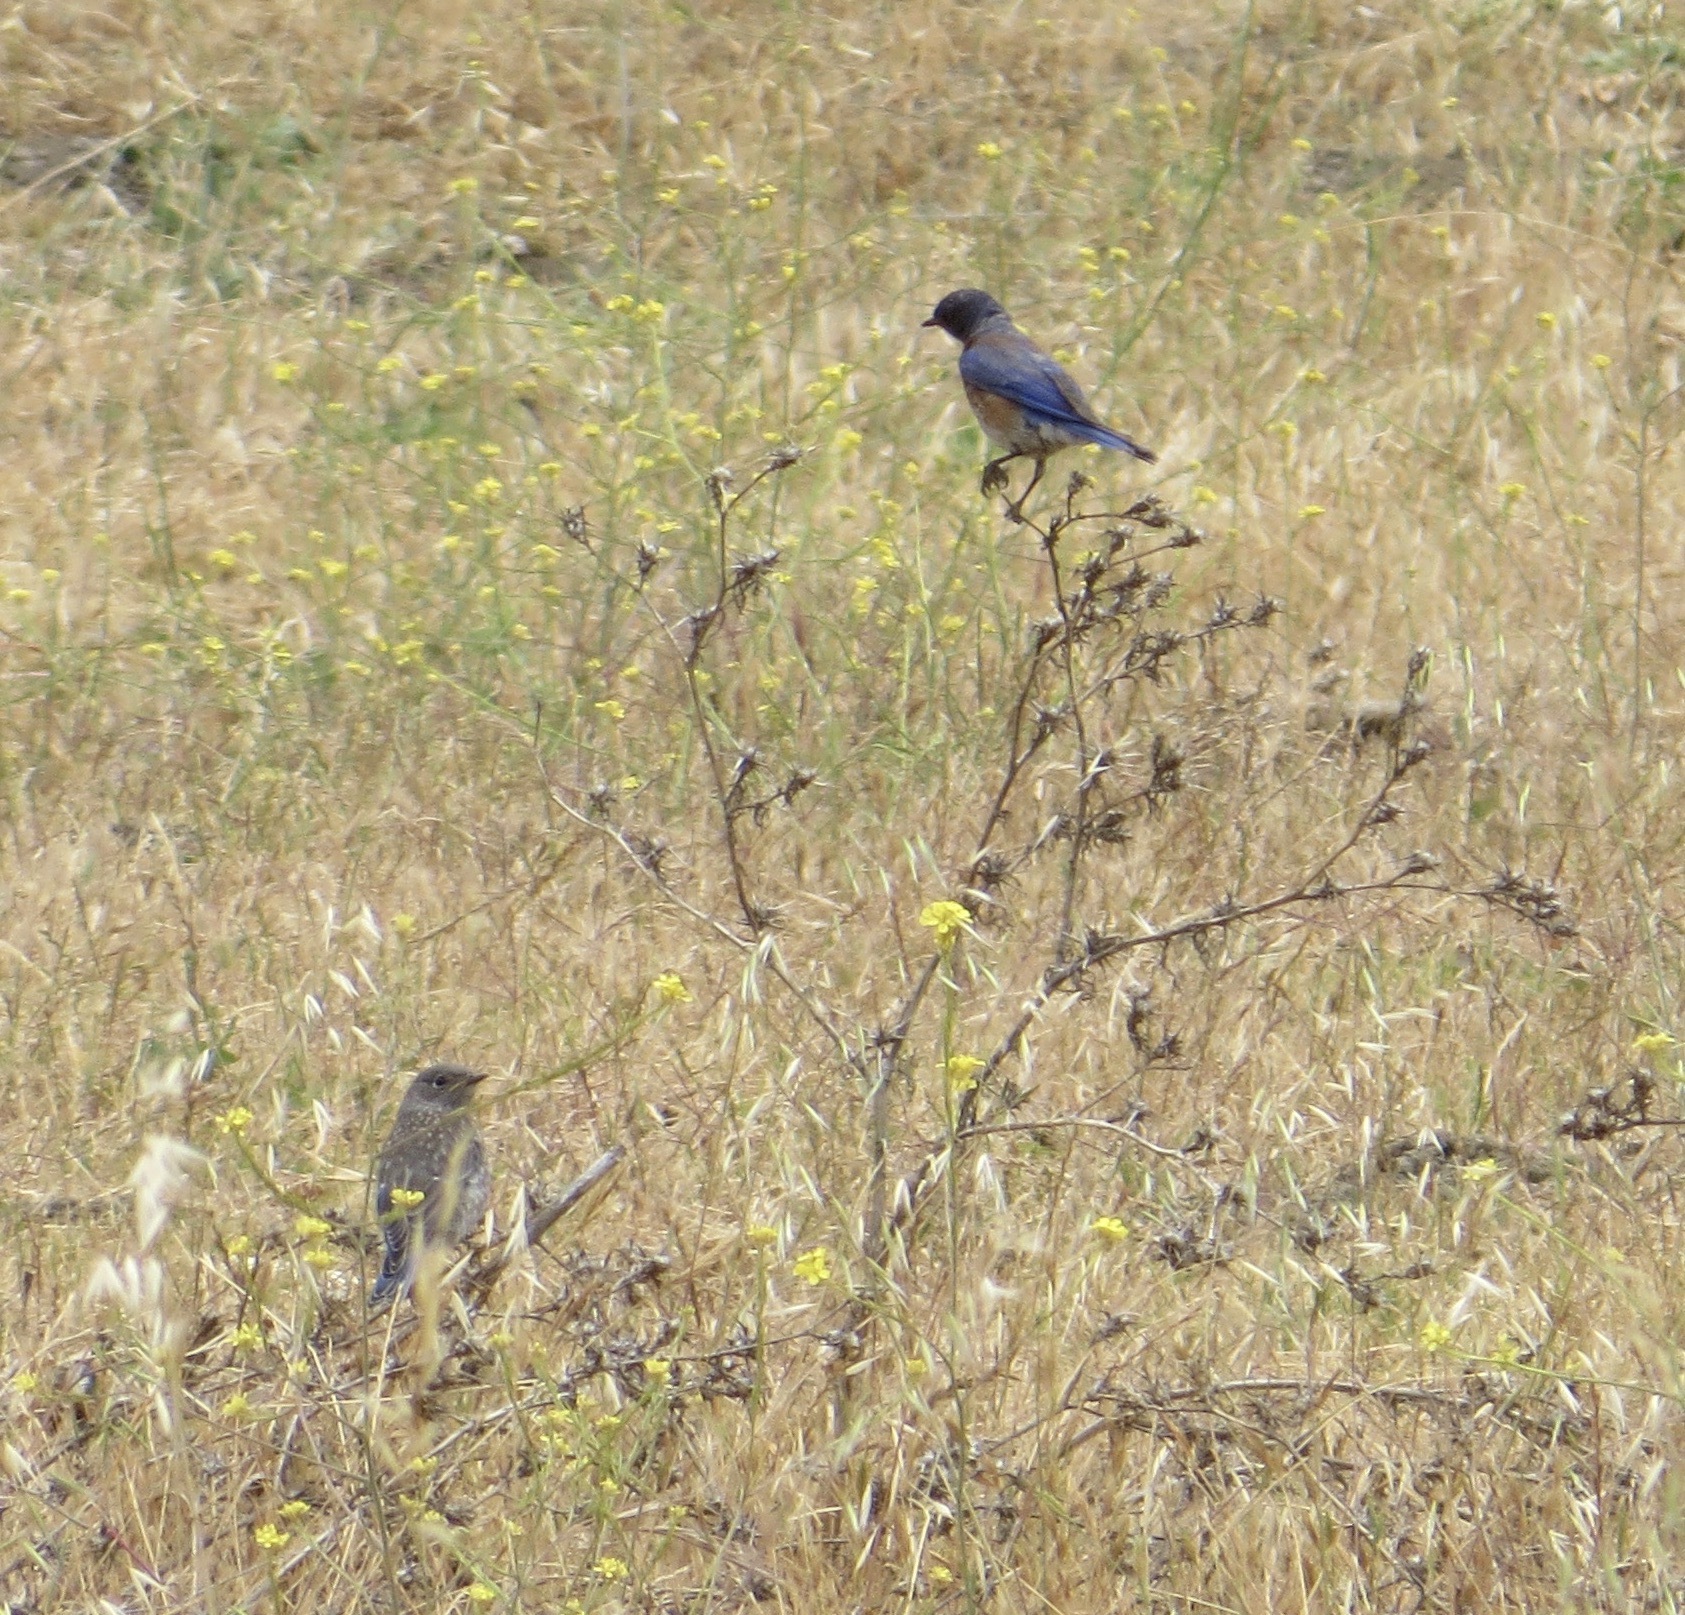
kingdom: Animalia
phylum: Chordata
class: Aves
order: Passeriformes
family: Turdidae
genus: Sialia
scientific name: Sialia mexicana
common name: Western bluebird
